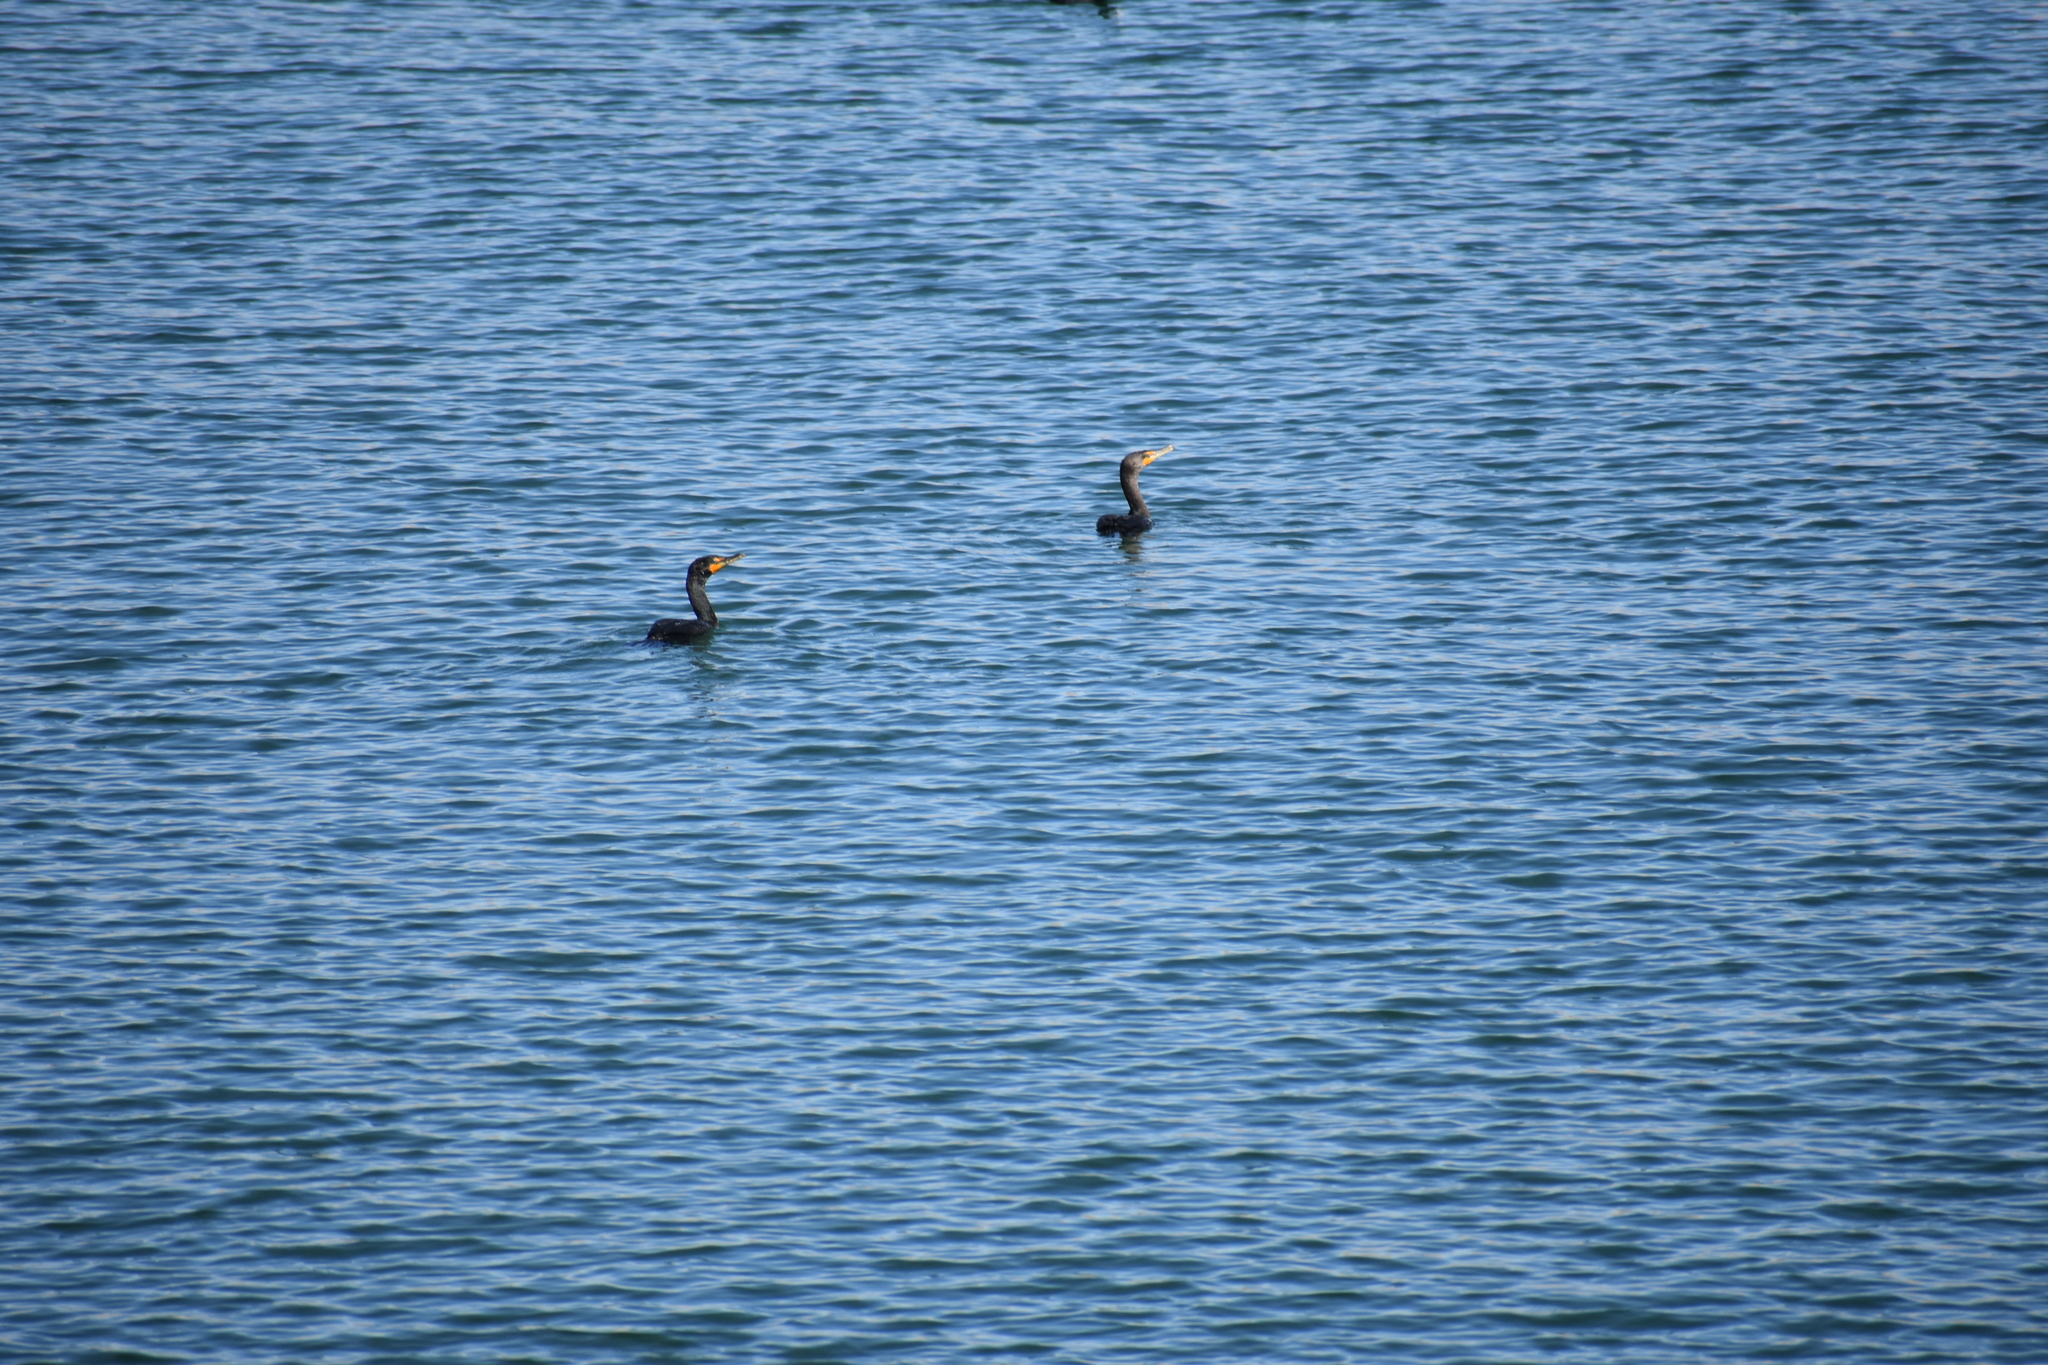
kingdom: Animalia
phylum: Chordata
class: Aves
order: Suliformes
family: Phalacrocoracidae
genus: Phalacrocorax
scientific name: Phalacrocorax auritus
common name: Double-crested cormorant
